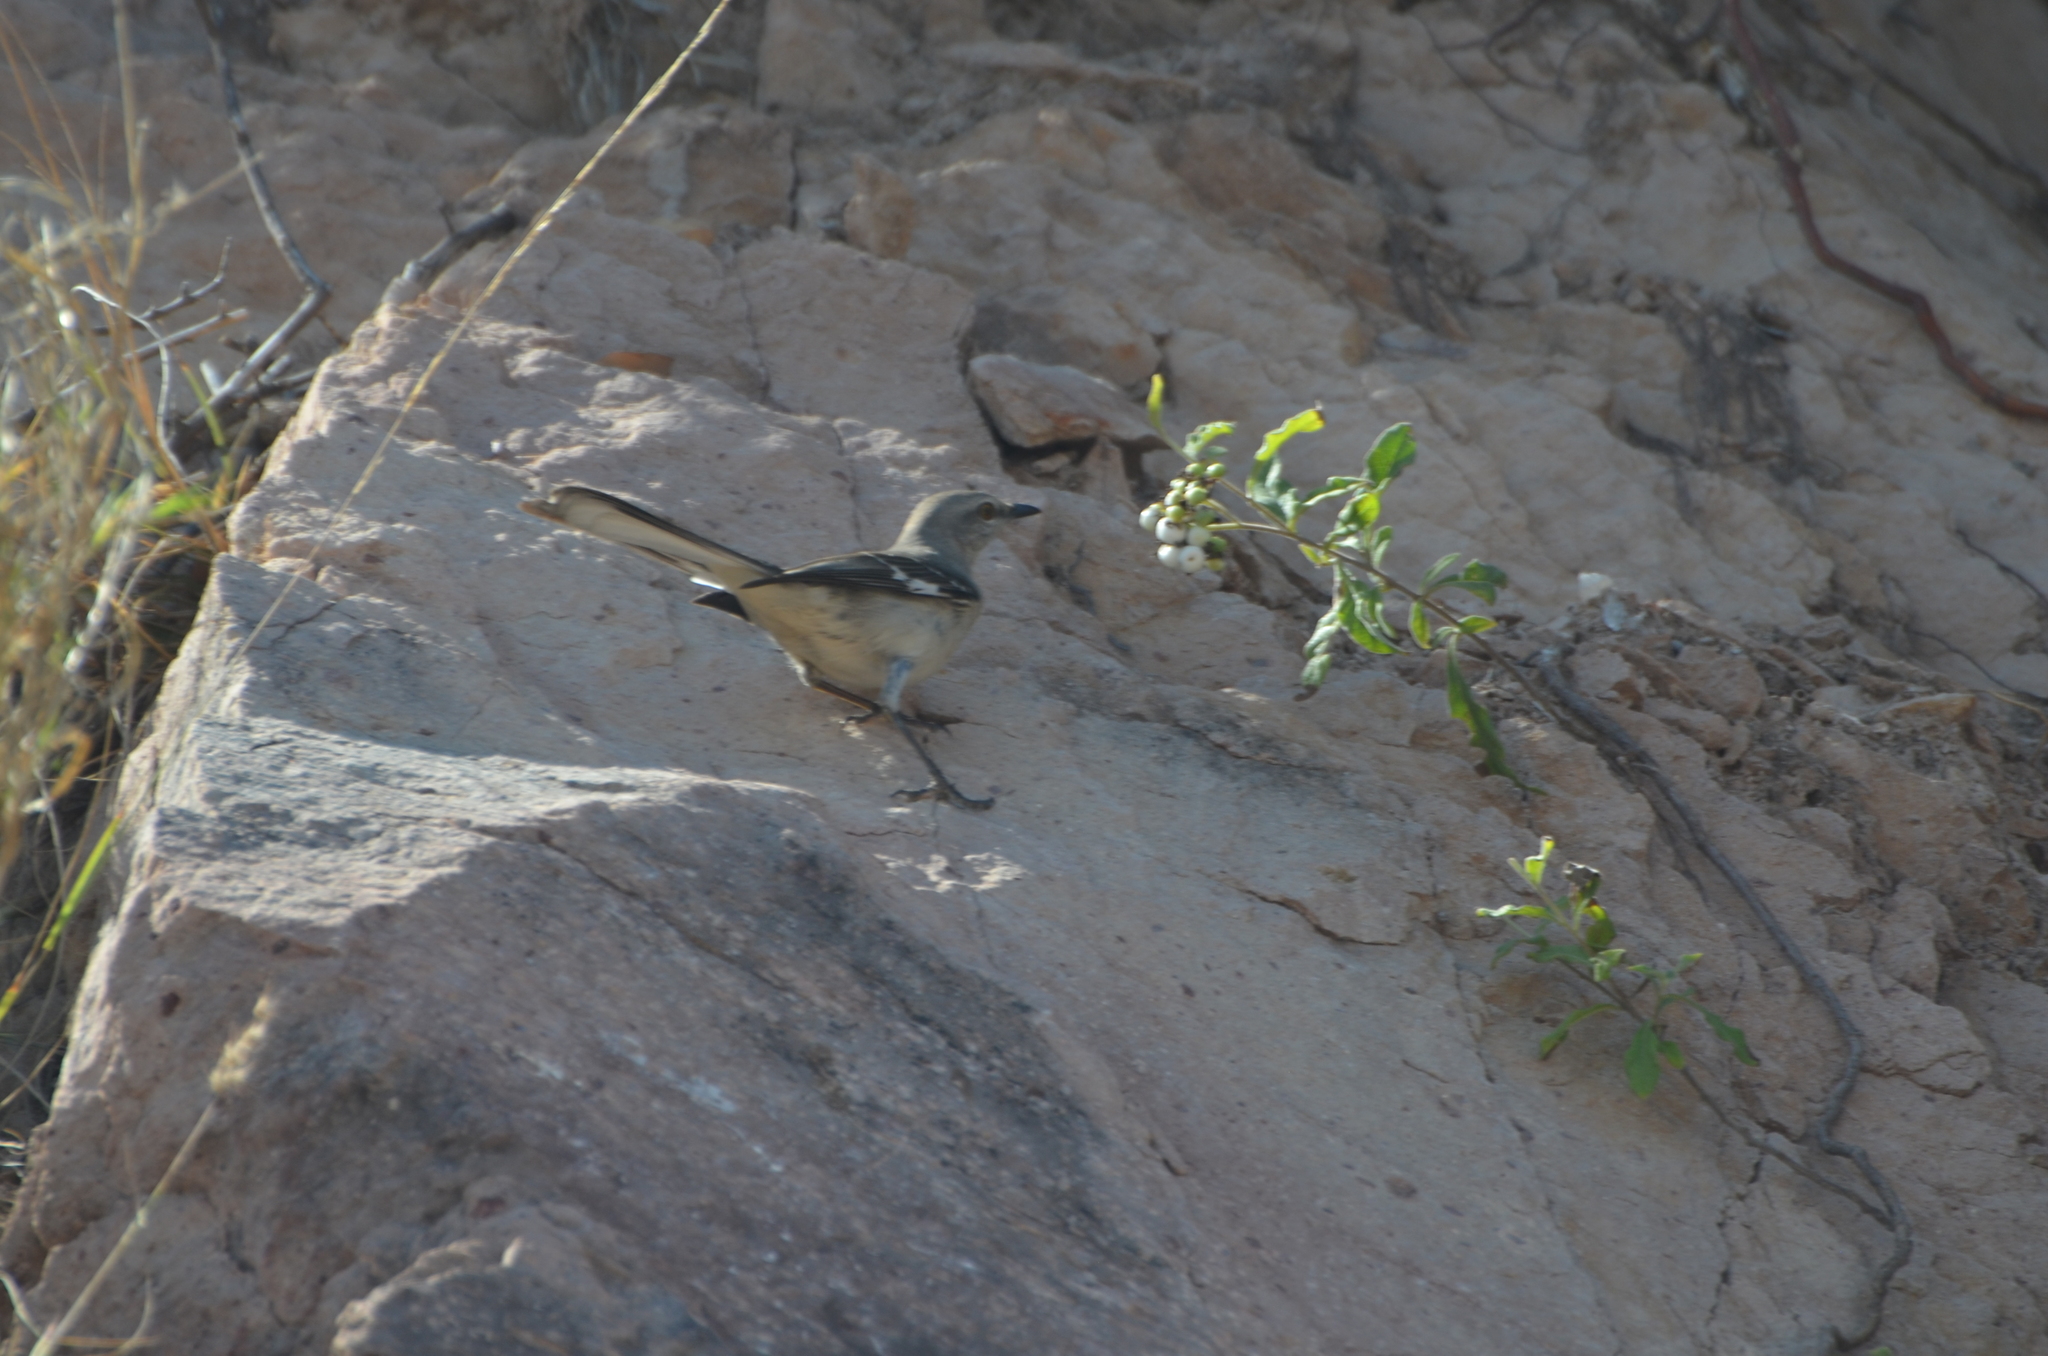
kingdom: Animalia
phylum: Chordata
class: Aves
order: Passeriformes
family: Mimidae
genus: Mimus
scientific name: Mimus polyglottos
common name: Northern mockingbird
